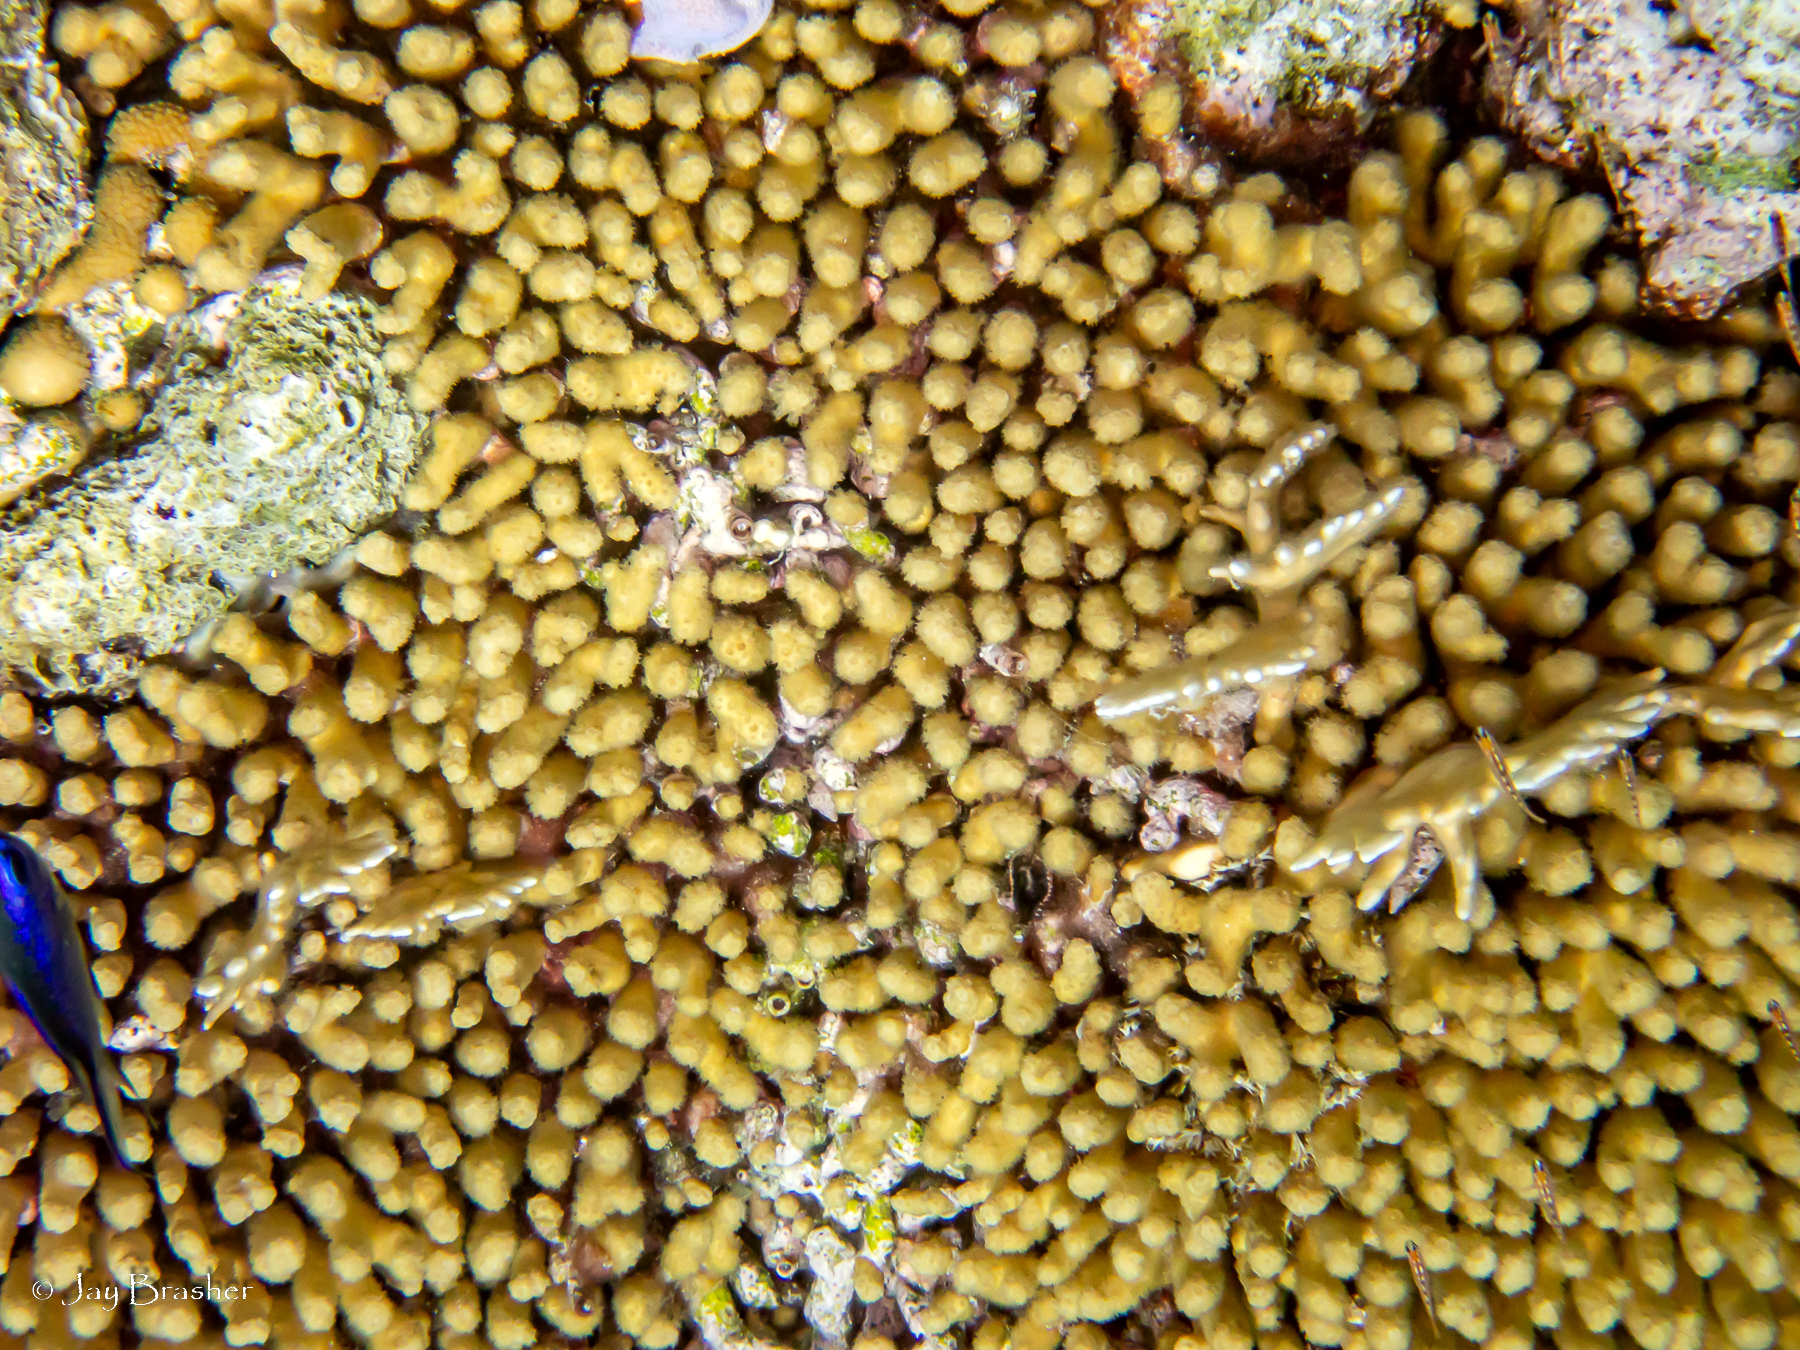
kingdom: Animalia
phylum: Cnidaria
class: Anthozoa
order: Scleractinia
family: Pocilloporidae
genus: Madracis
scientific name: Madracis auretenra
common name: Yellow pencil coral
